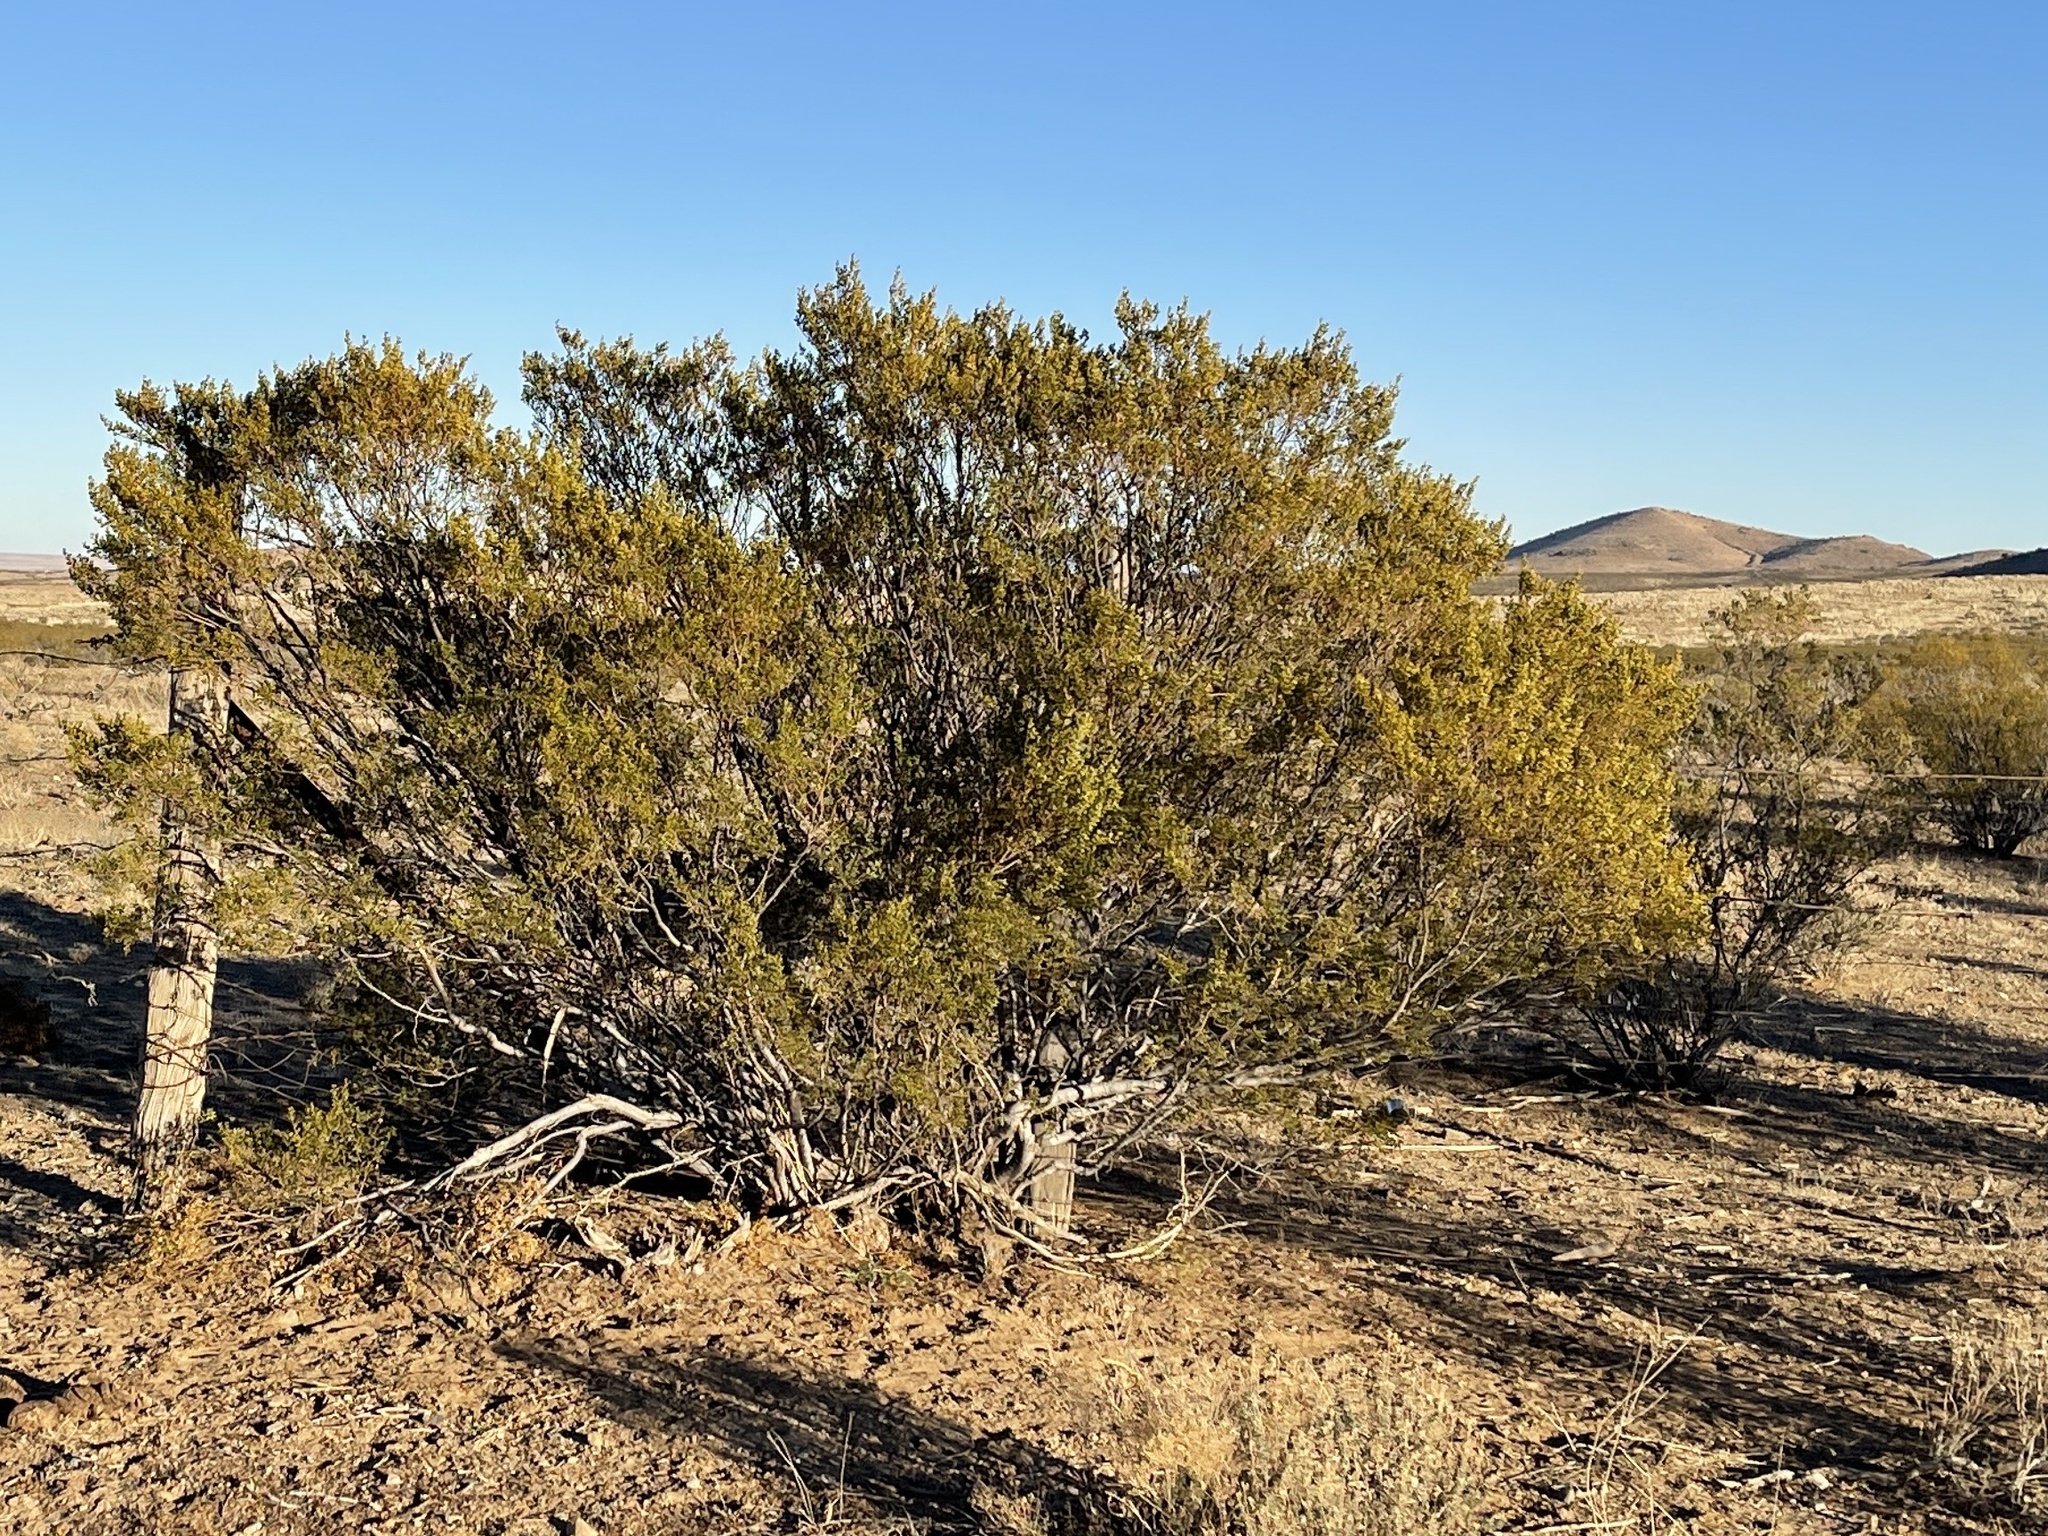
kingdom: Plantae
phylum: Tracheophyta
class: Magnoliopsida
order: Zygophyllales
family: Zygophyllaceae
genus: Larrea
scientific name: Larrea tridentata
